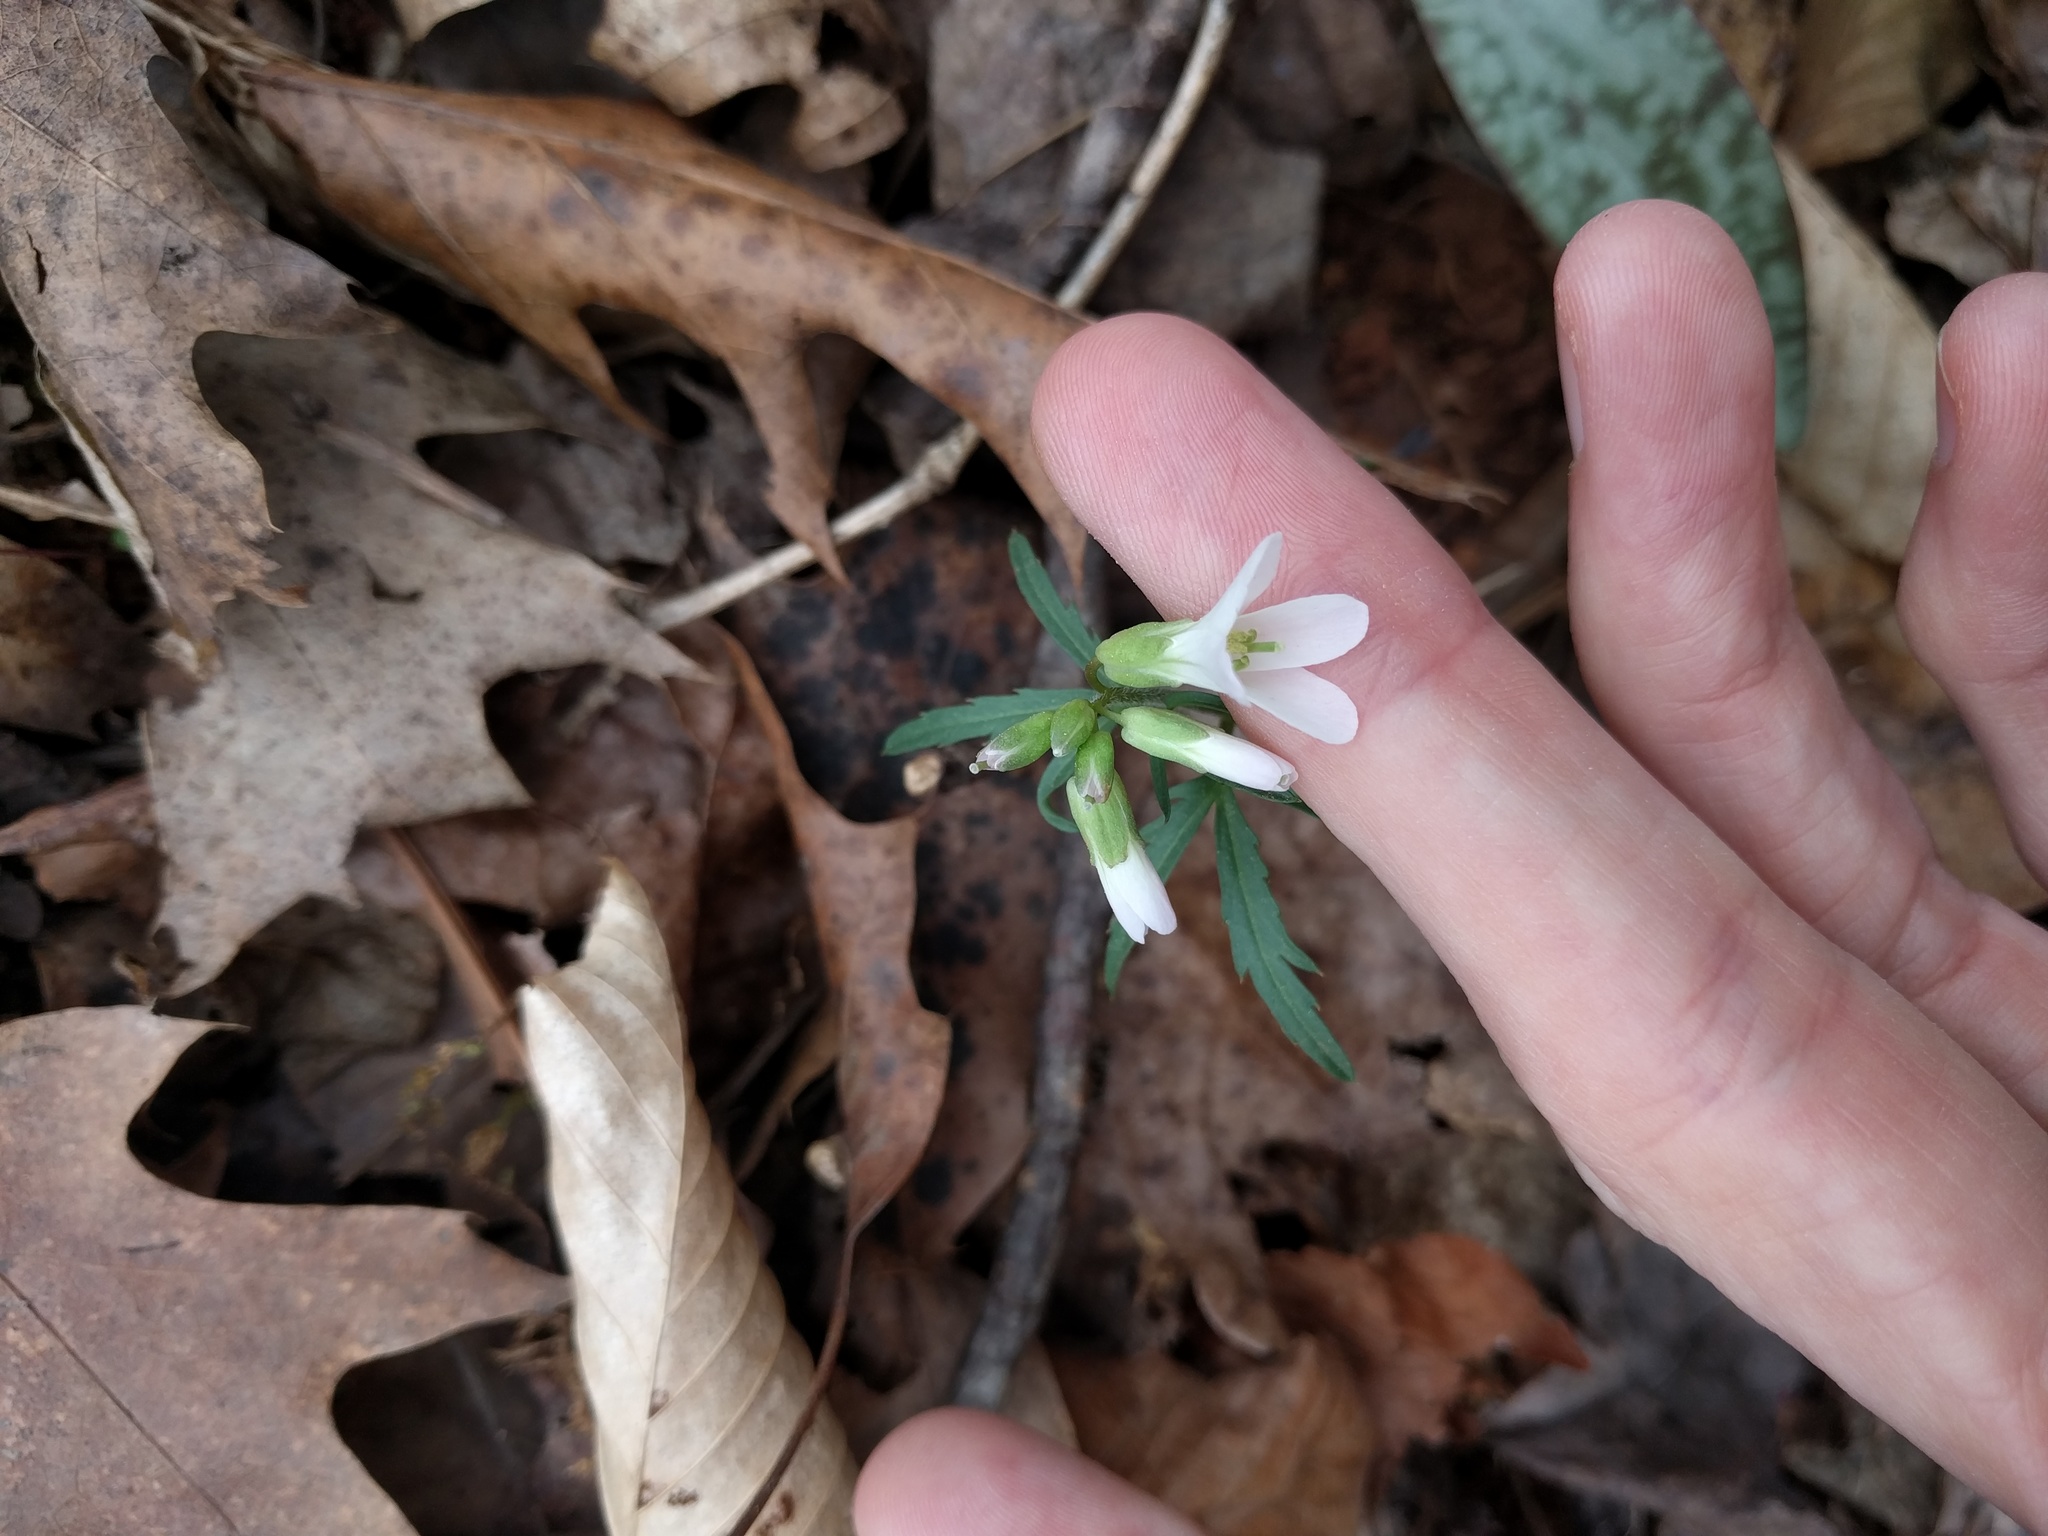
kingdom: Plantae
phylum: Tracheophyta
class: Magnoliopsida
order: Brassicales
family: Brassicaceae
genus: Cardamine
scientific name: Cardamine concatenata
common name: Cut-leaf toothcup
